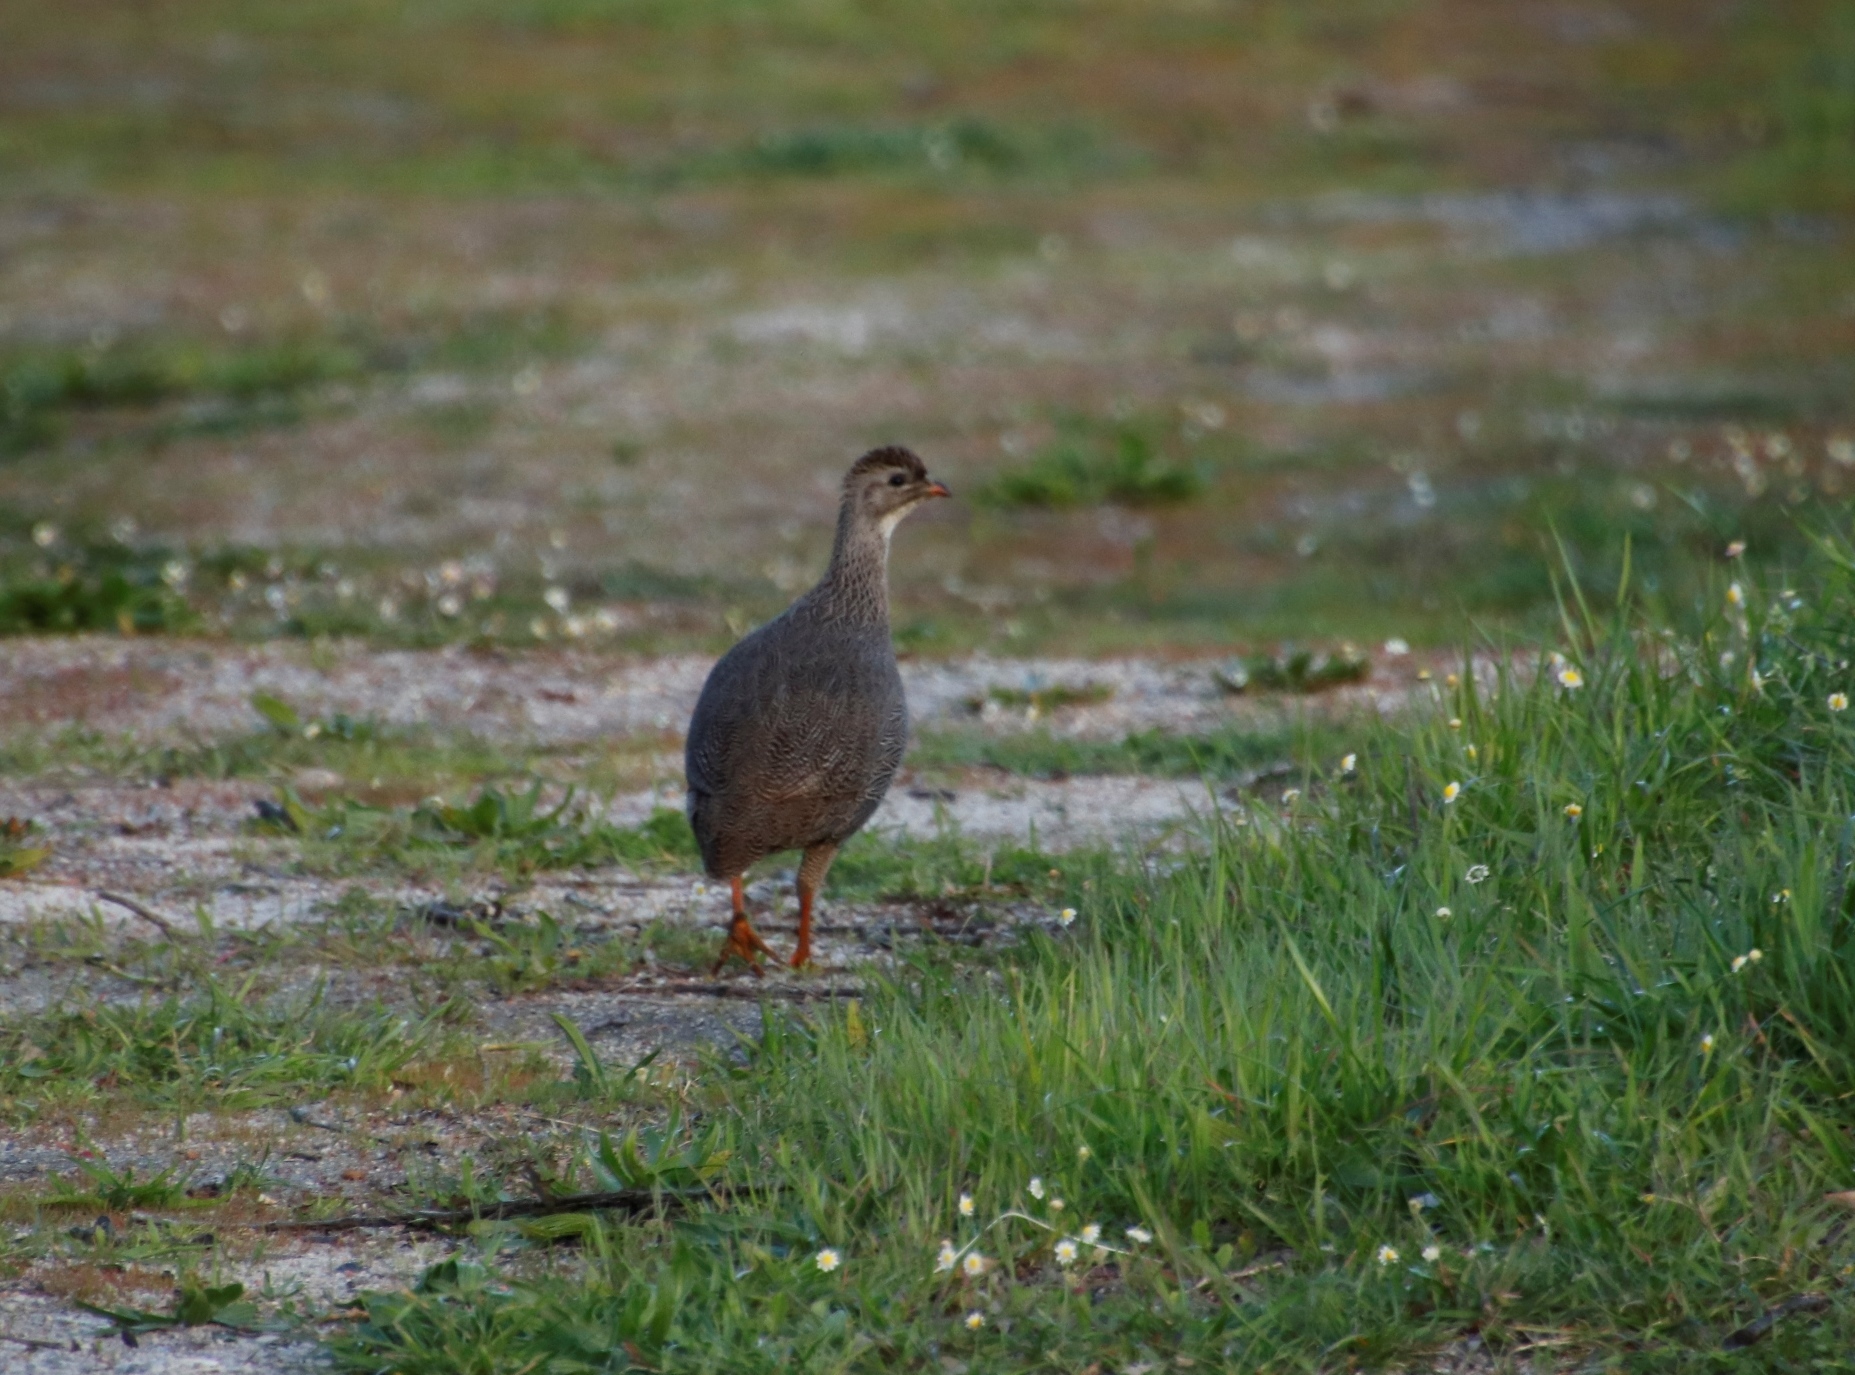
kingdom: Animalia
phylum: Chordata
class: Aves
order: Galliformes
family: Phasianidae
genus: Pternistis
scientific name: Pternistis capensis
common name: Cape spurfowl
